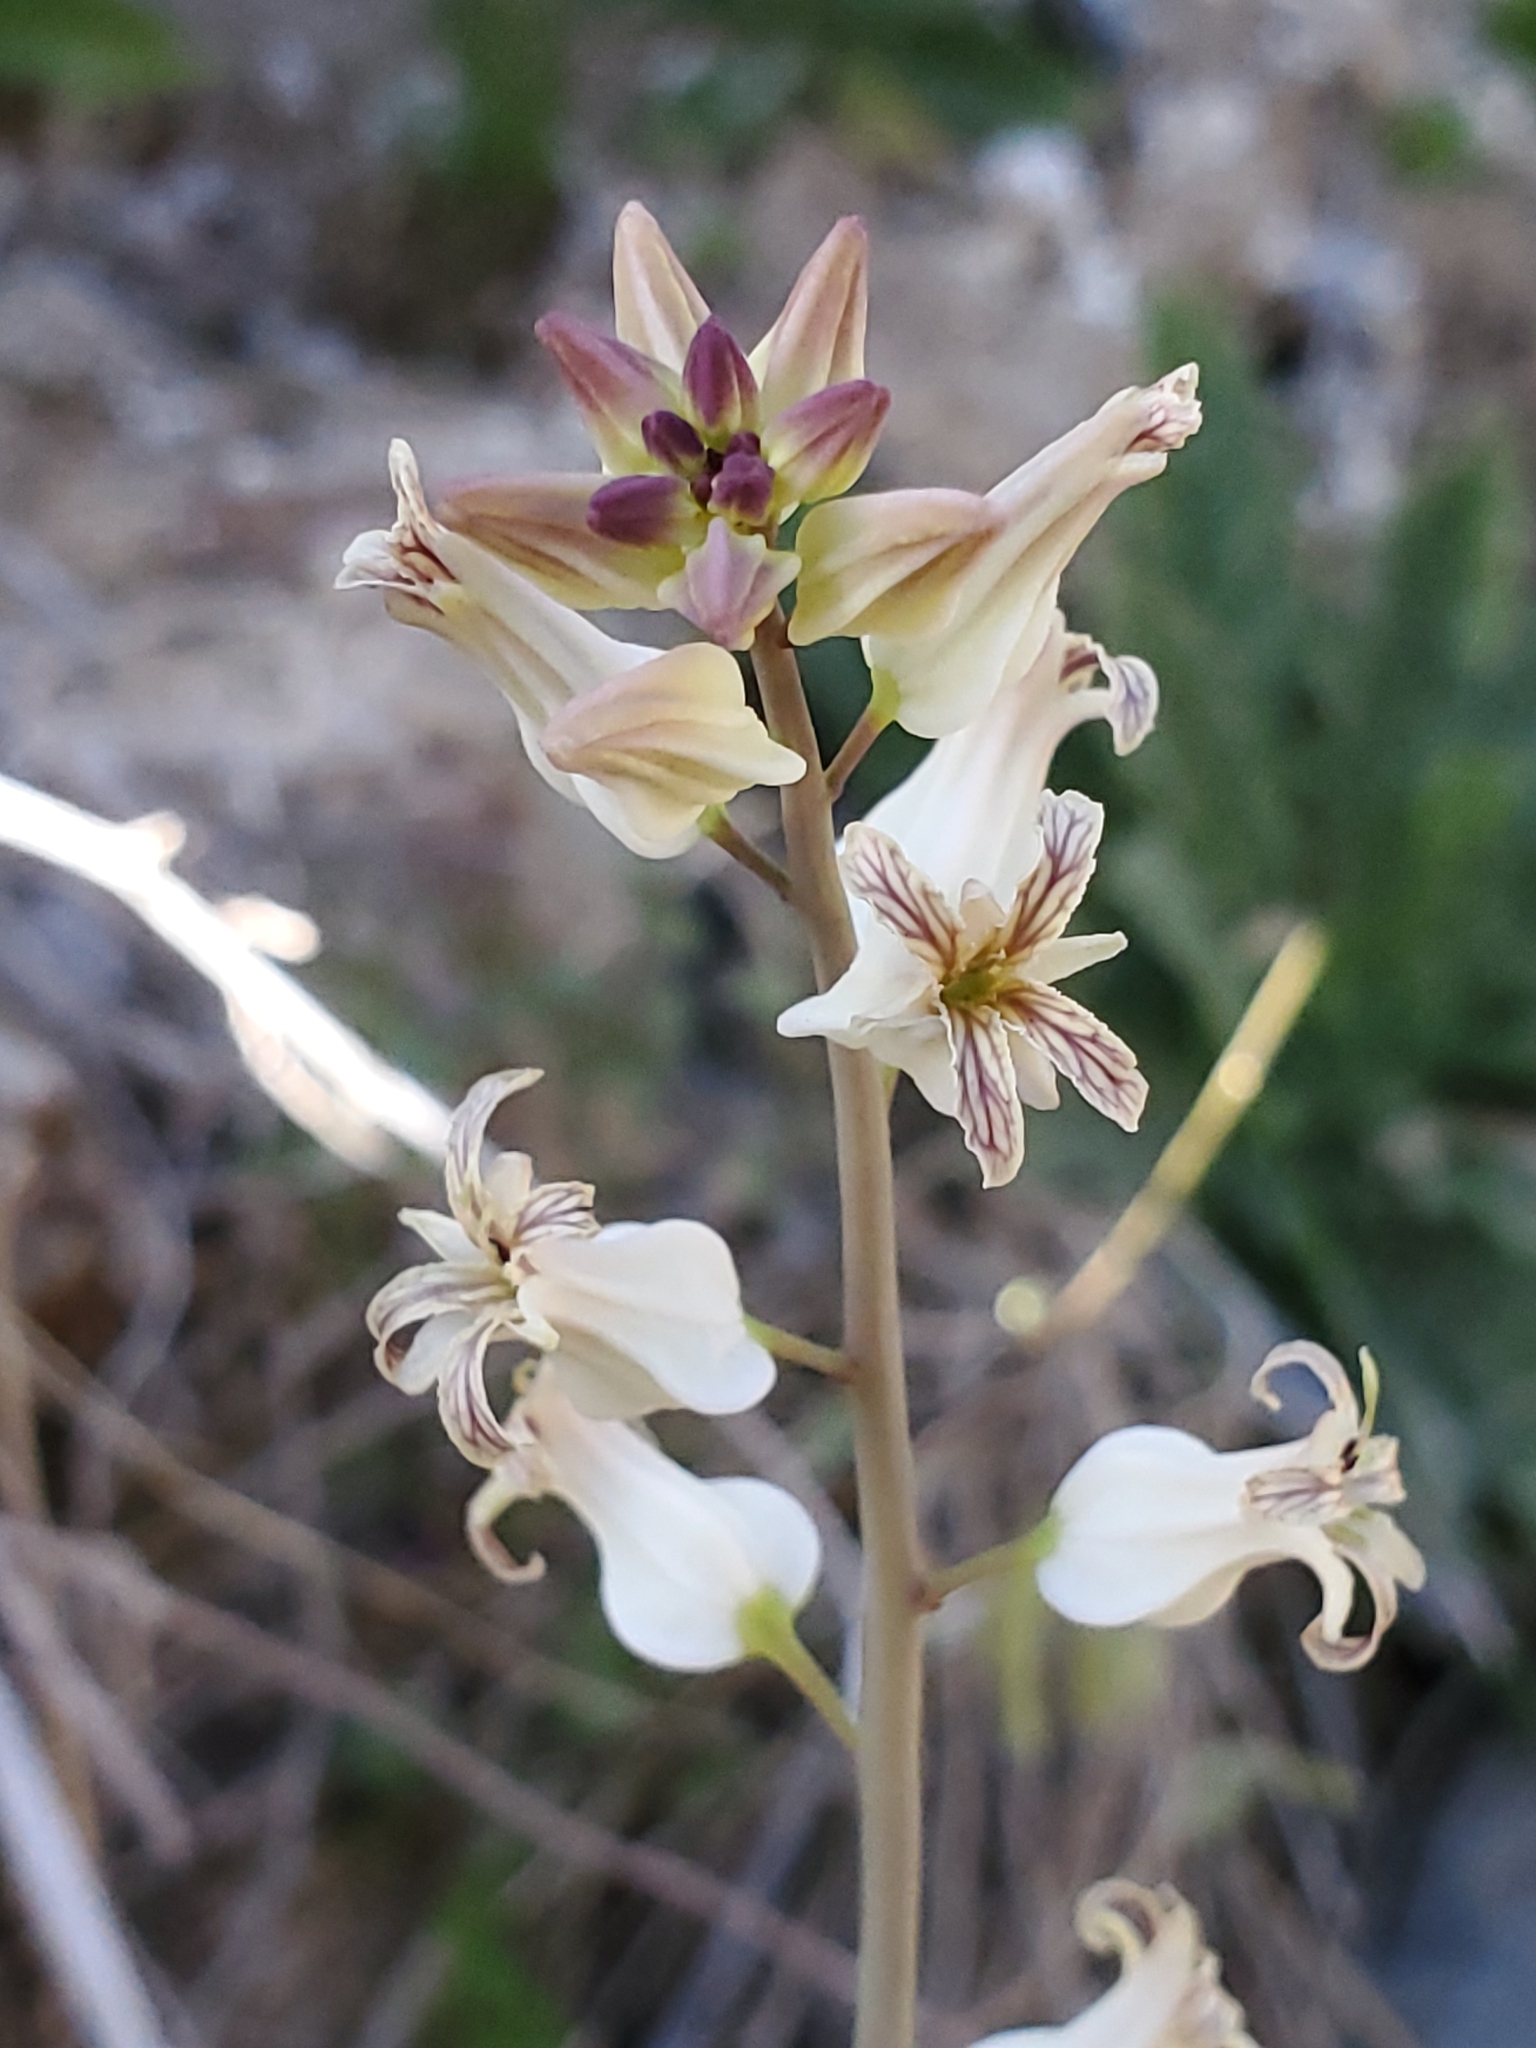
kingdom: Plantae
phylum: Tracheophyta
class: Magnoliopsida
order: Brassicales
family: Brassicaceae
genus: Streptanthus
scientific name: Streptanthus carinatus
